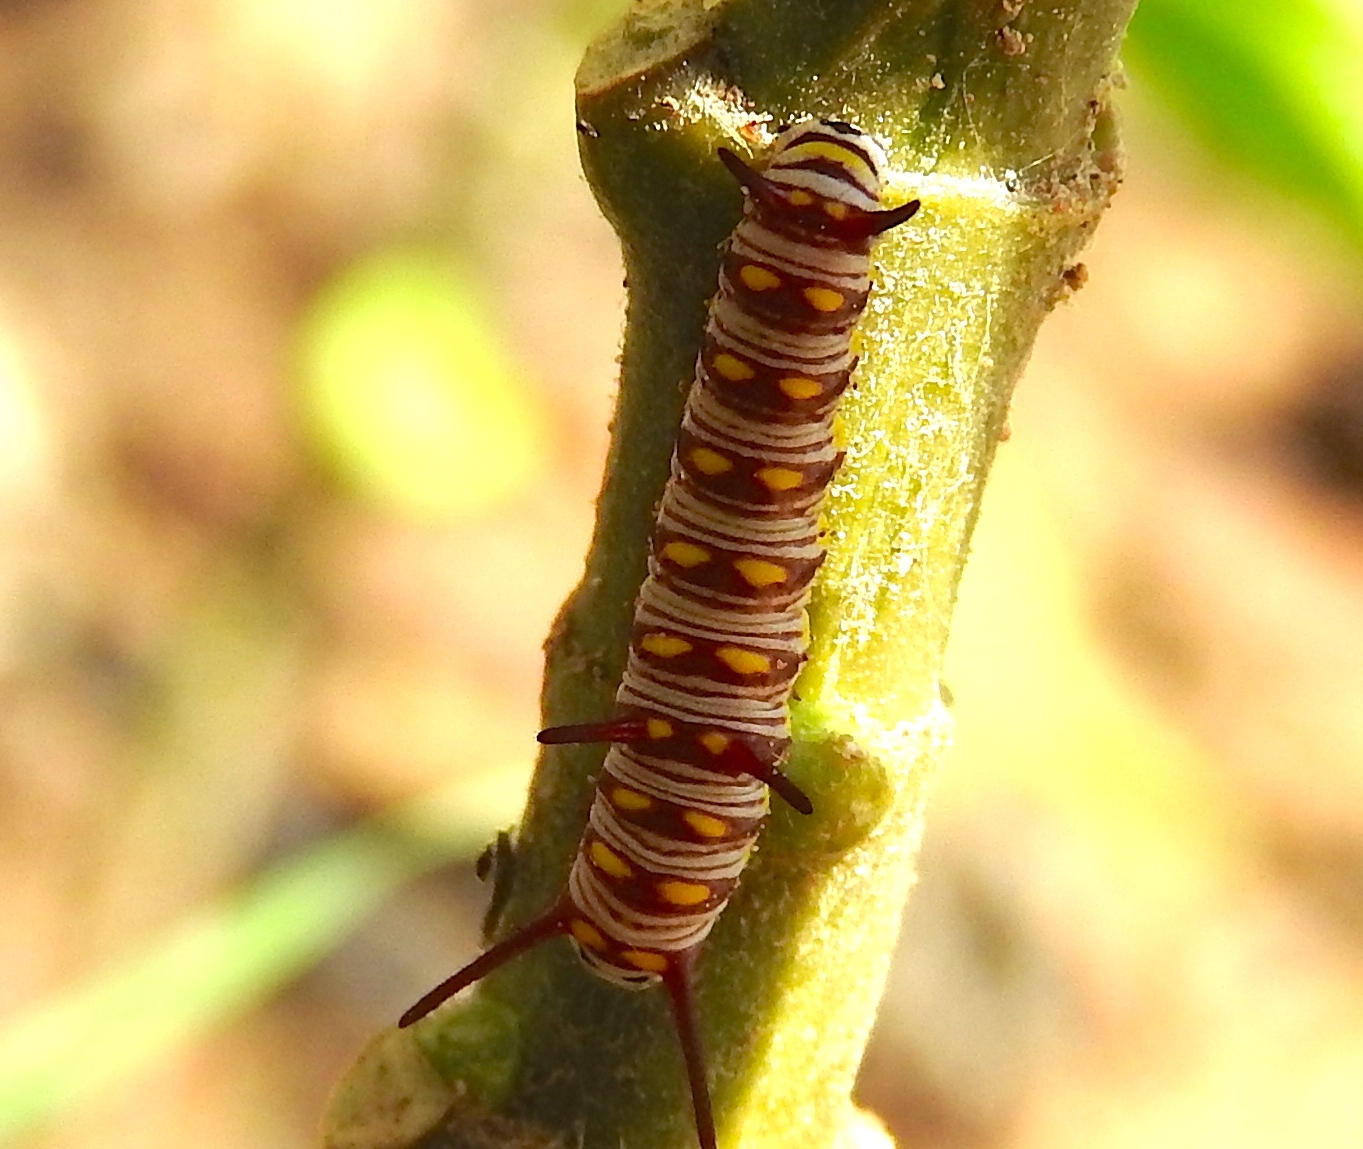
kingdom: Animalia
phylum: Arthropoda
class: Insecta
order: Lepidoptera
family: Nymphalidae
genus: Danaus
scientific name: Danaus
